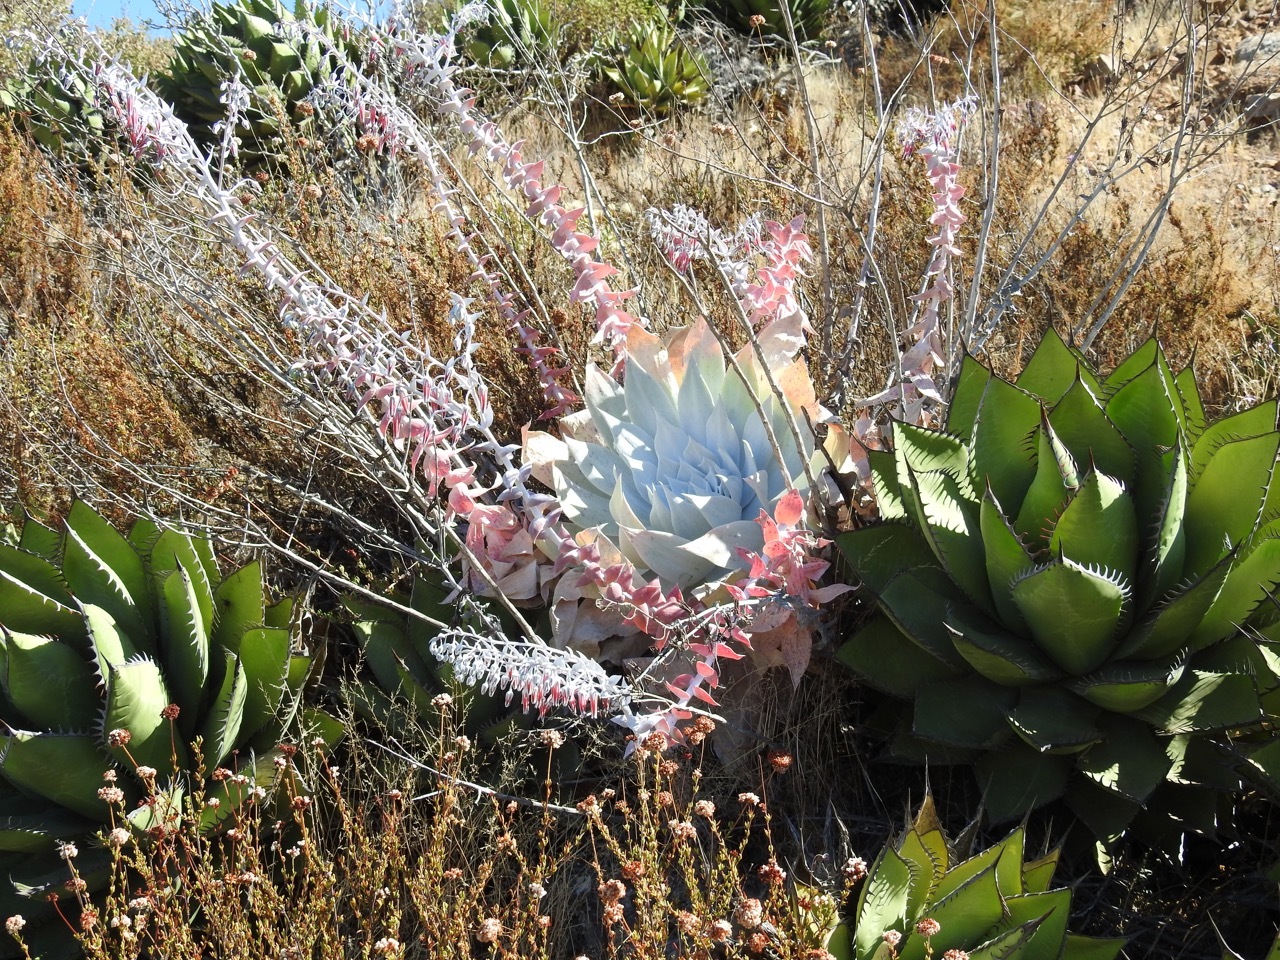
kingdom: Plantae
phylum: Tracheophyta
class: Magnoliopsida
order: Saxifragales
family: Crassulaceae
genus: Dudleya
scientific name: Dudleya pulverulenta
